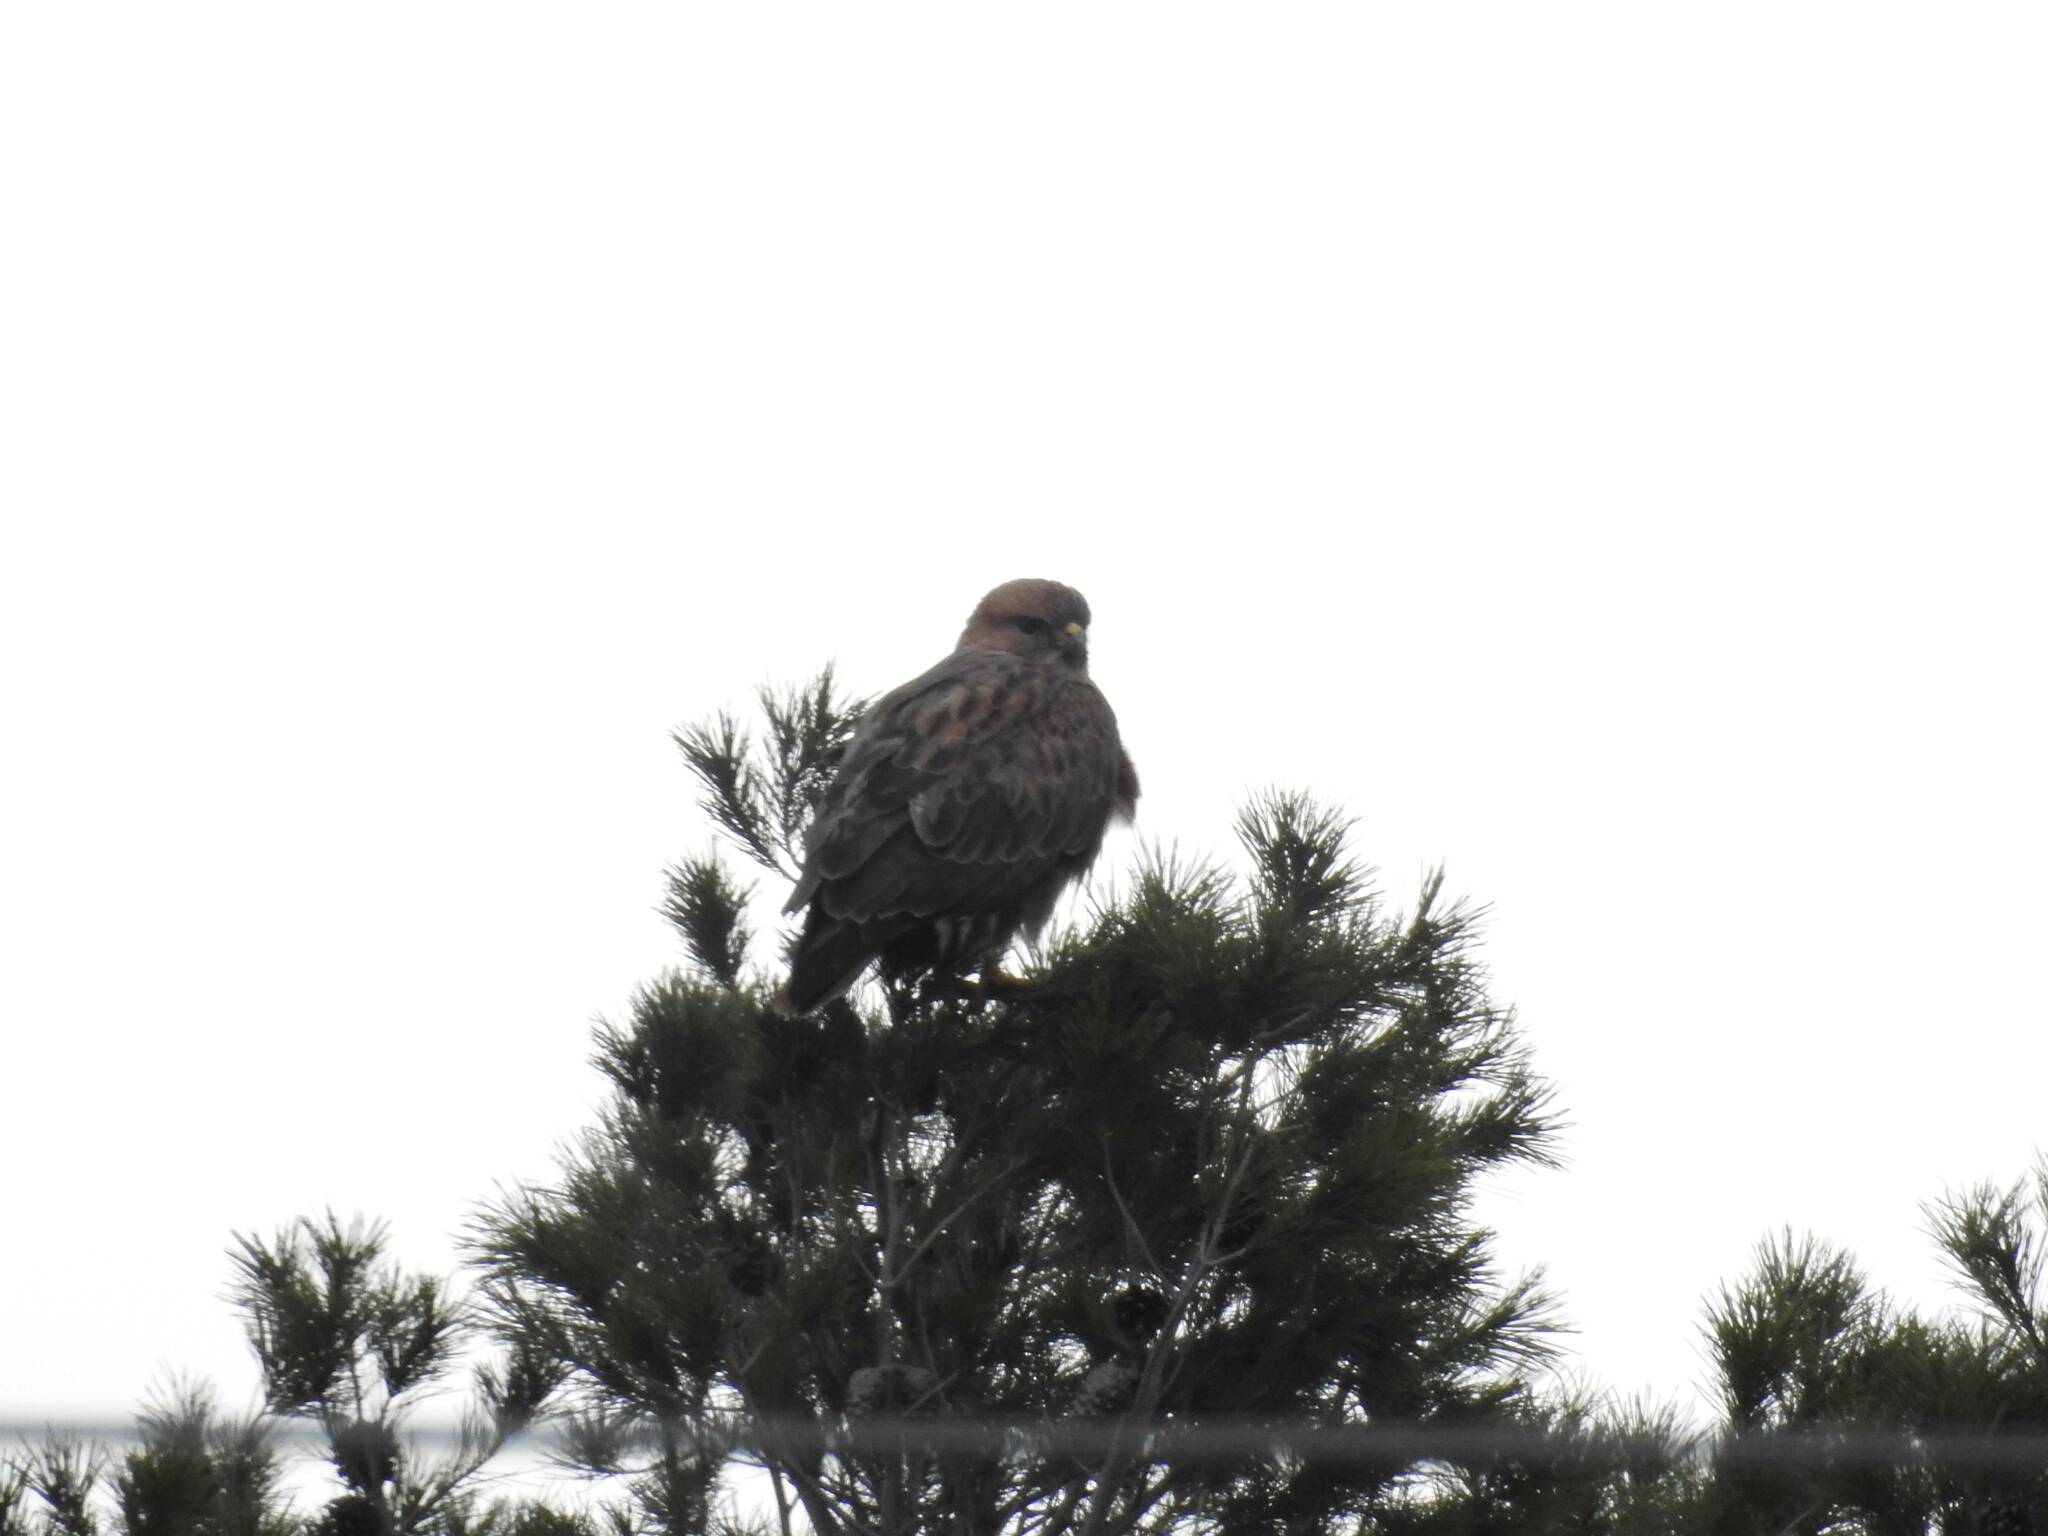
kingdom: Animalia
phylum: Chordata
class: Aves
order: Accipitriformes
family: Accipitridae
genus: Buteo
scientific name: Buteo rufinus
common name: Long-legged buzzard
